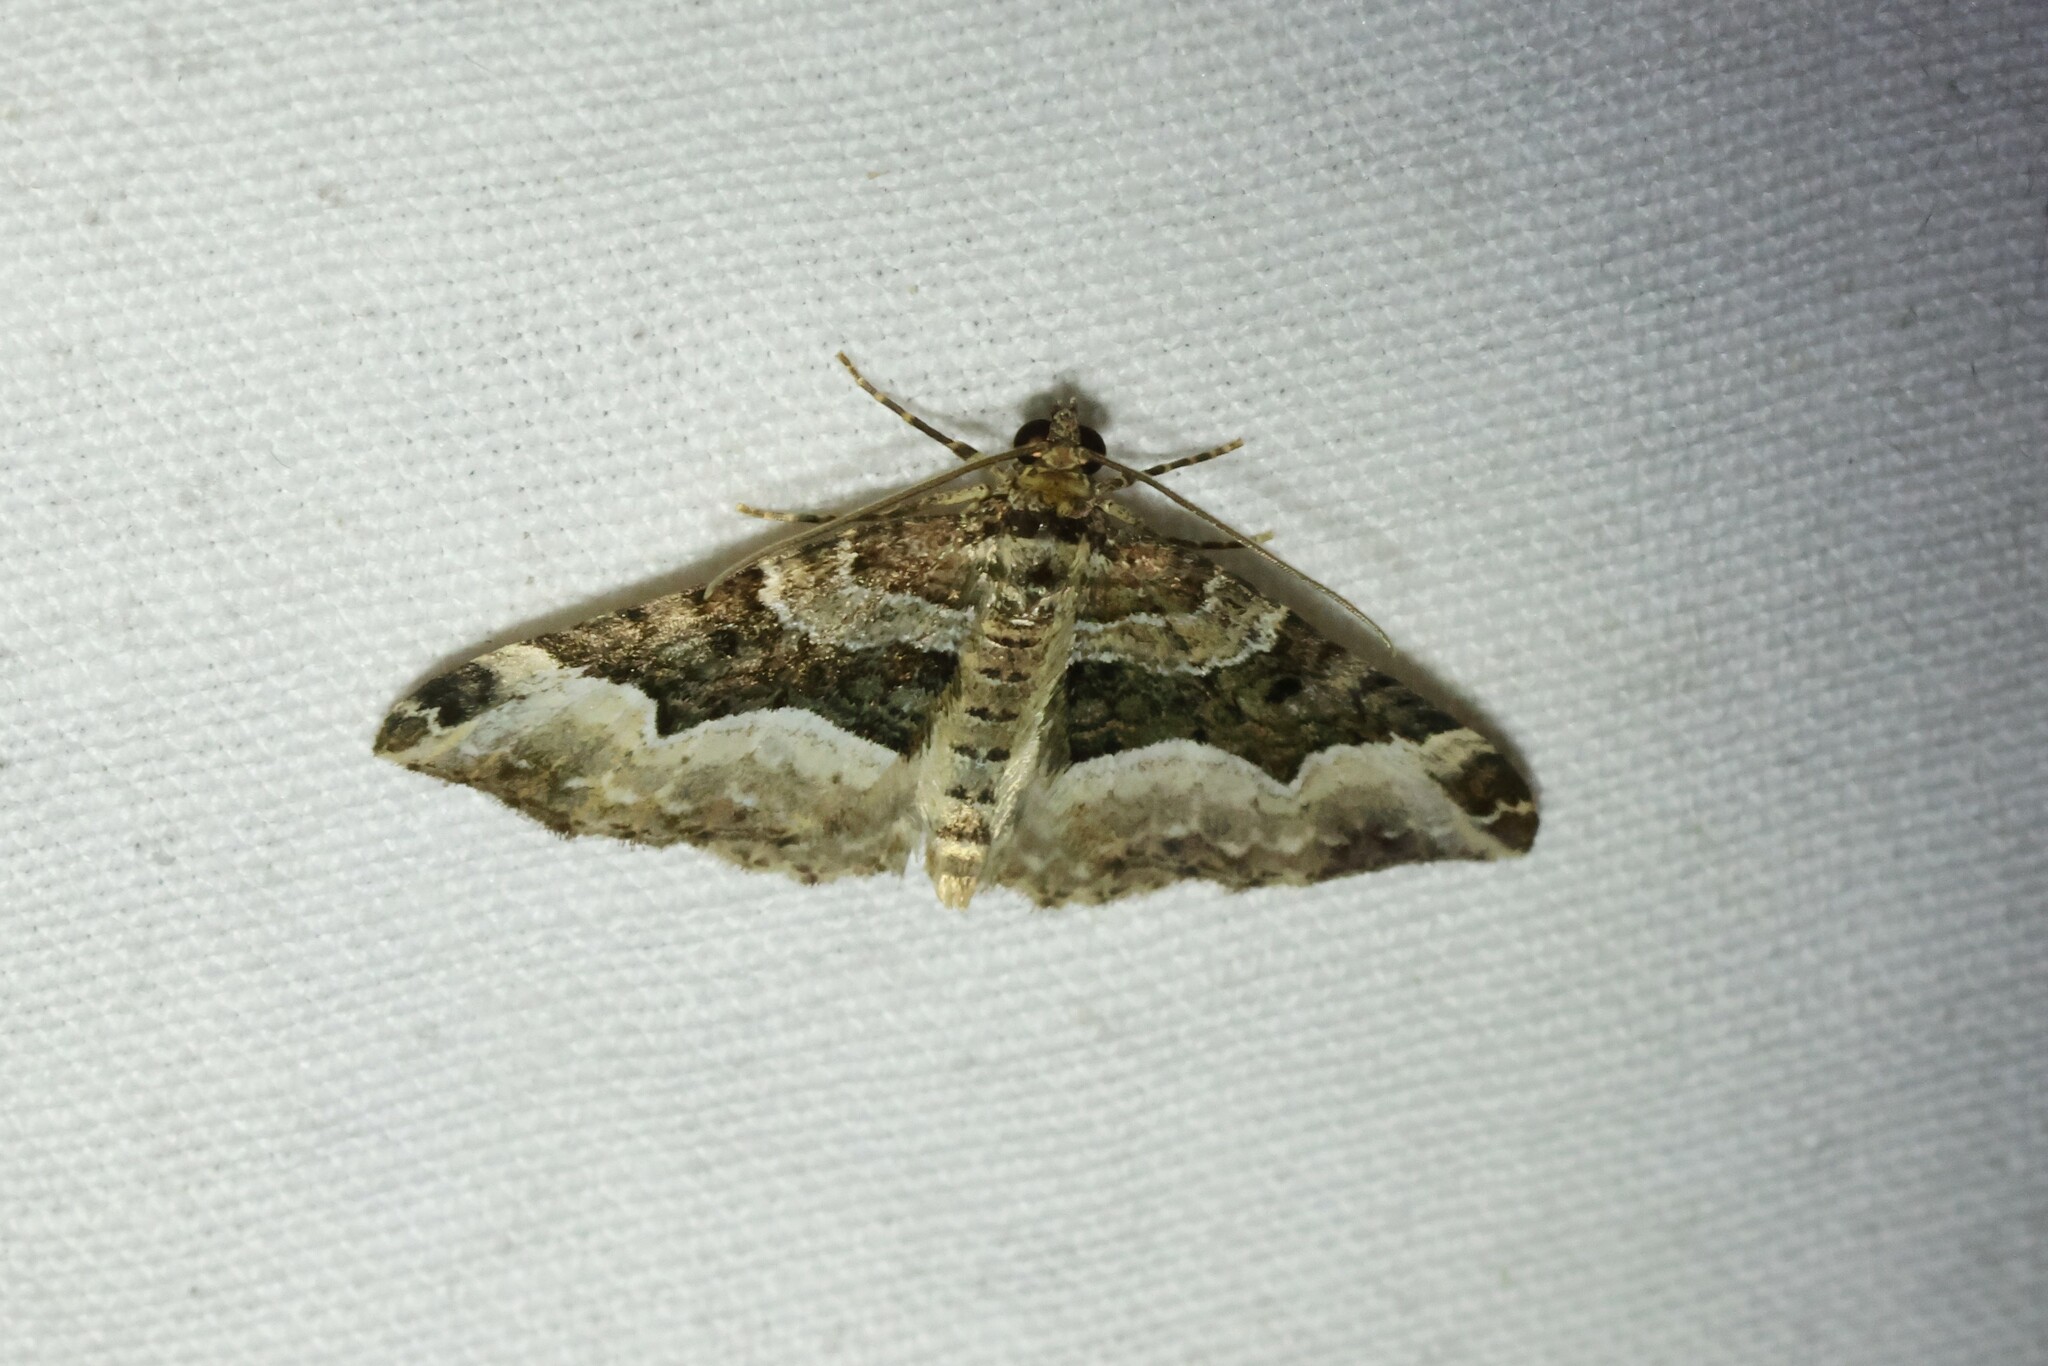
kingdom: Animalia
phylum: Arthropoda
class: Insecta
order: Lepidoptera
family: Geometridae
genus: Euphyia
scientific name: Euphyia intermediata
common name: Sharp-angled carpet
